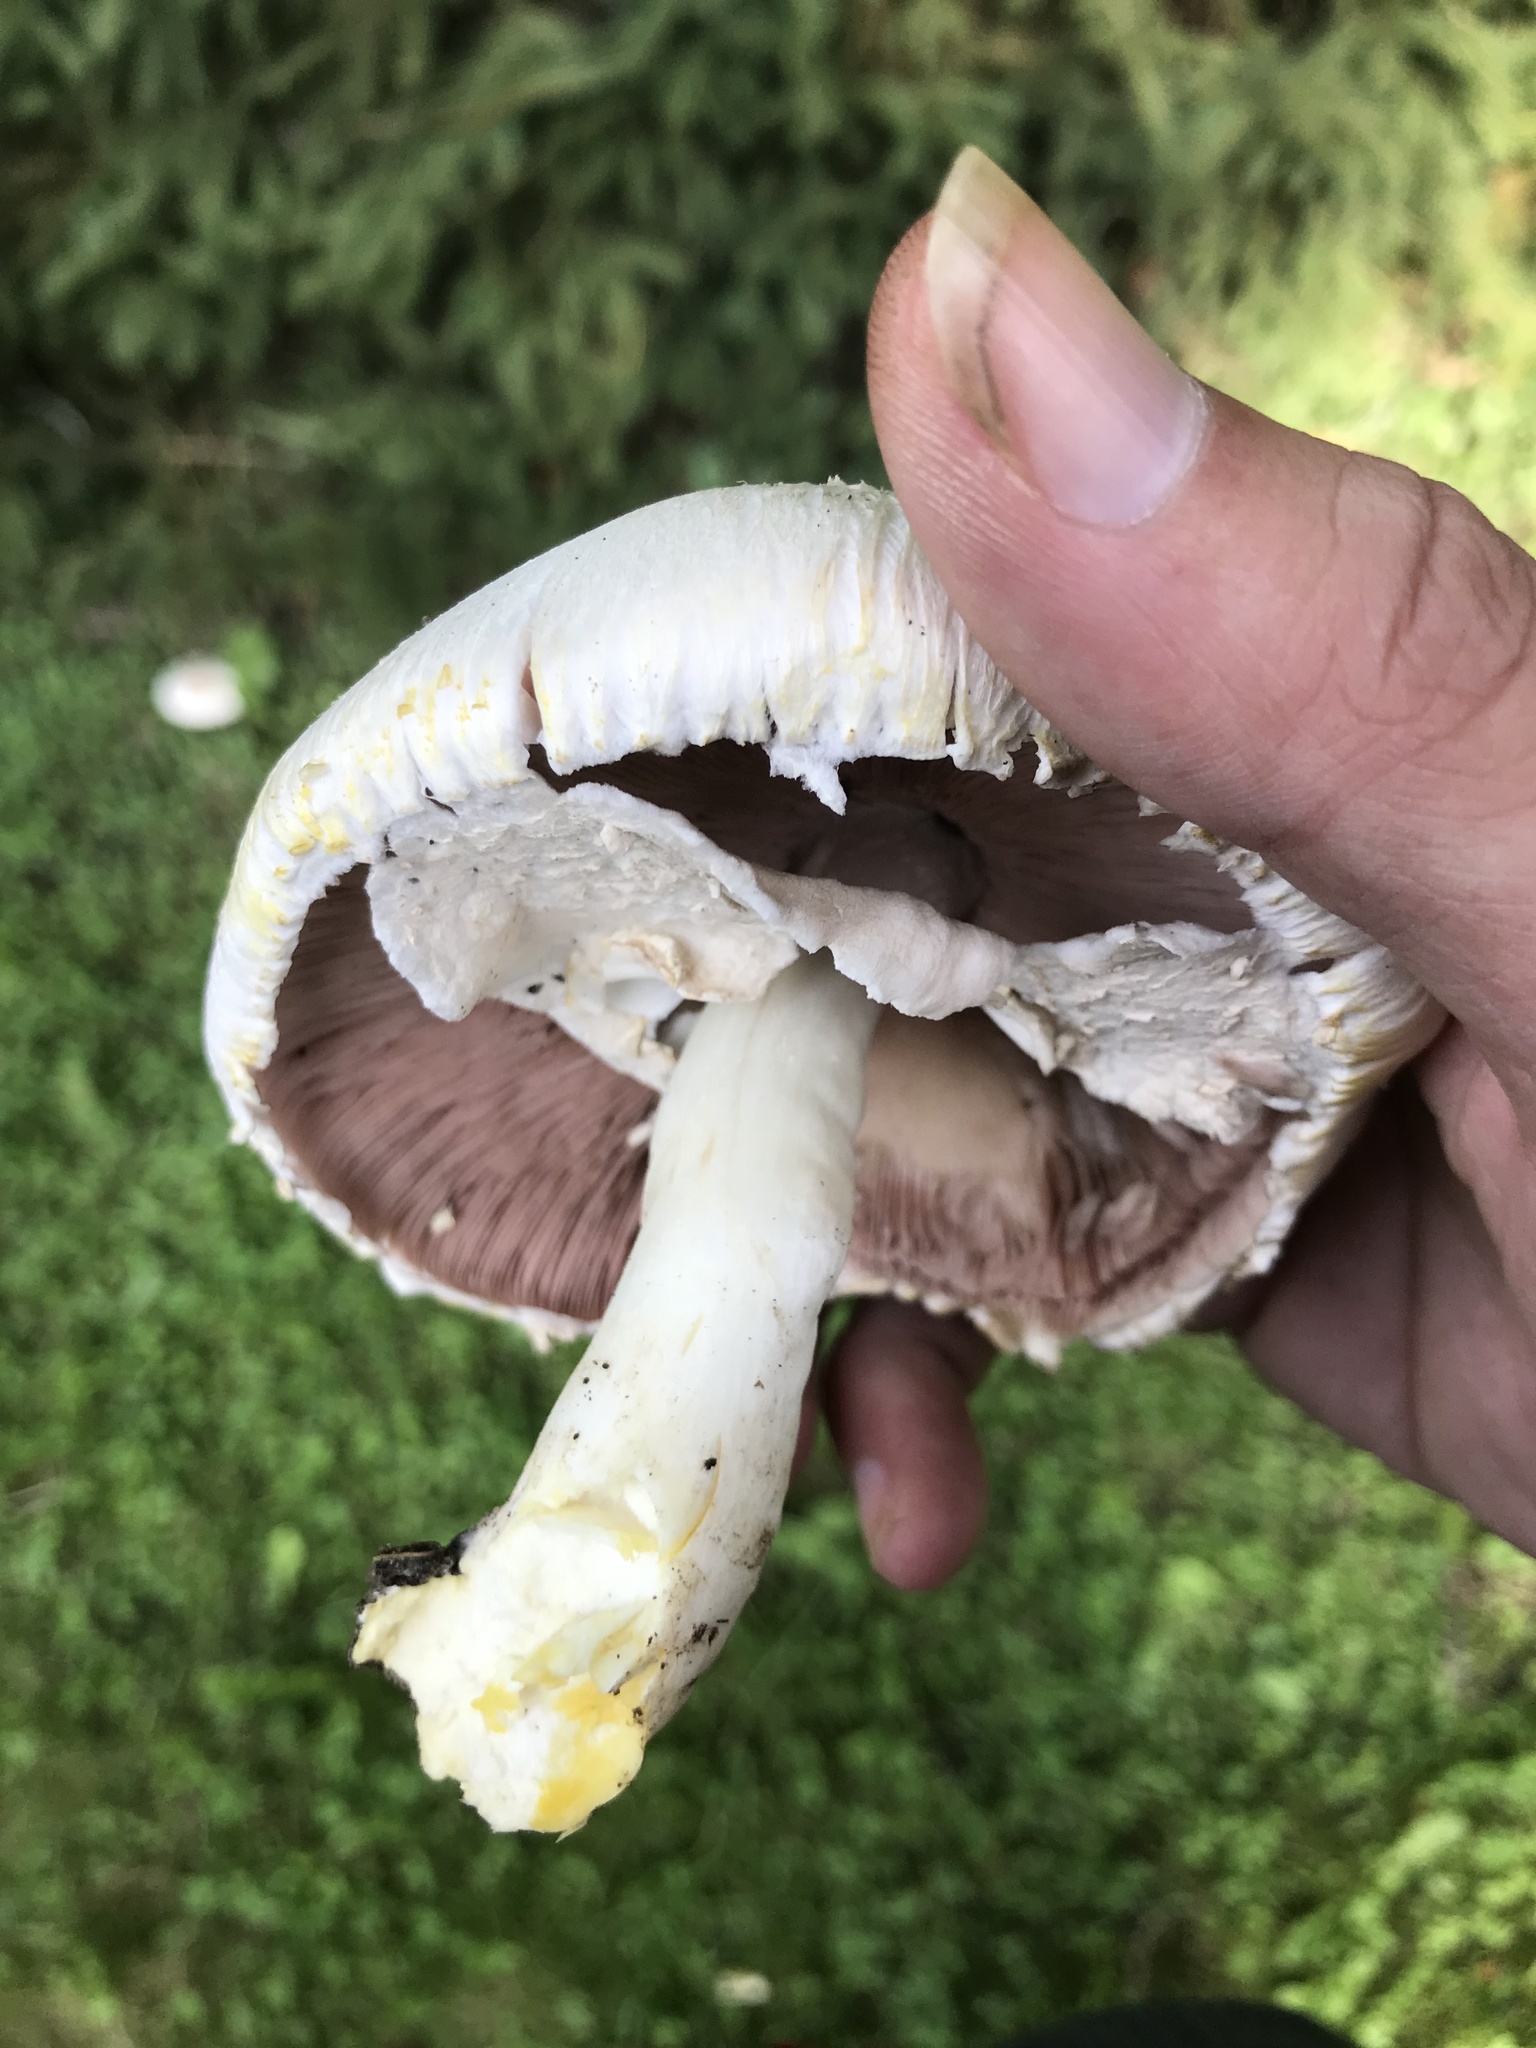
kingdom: Fungi
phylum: Basidiomycota
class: Agaricomycetes
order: Agaricales
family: Agaricaceae
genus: Agaricus
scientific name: Agaricus xanthodermus
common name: Yellow stainer
